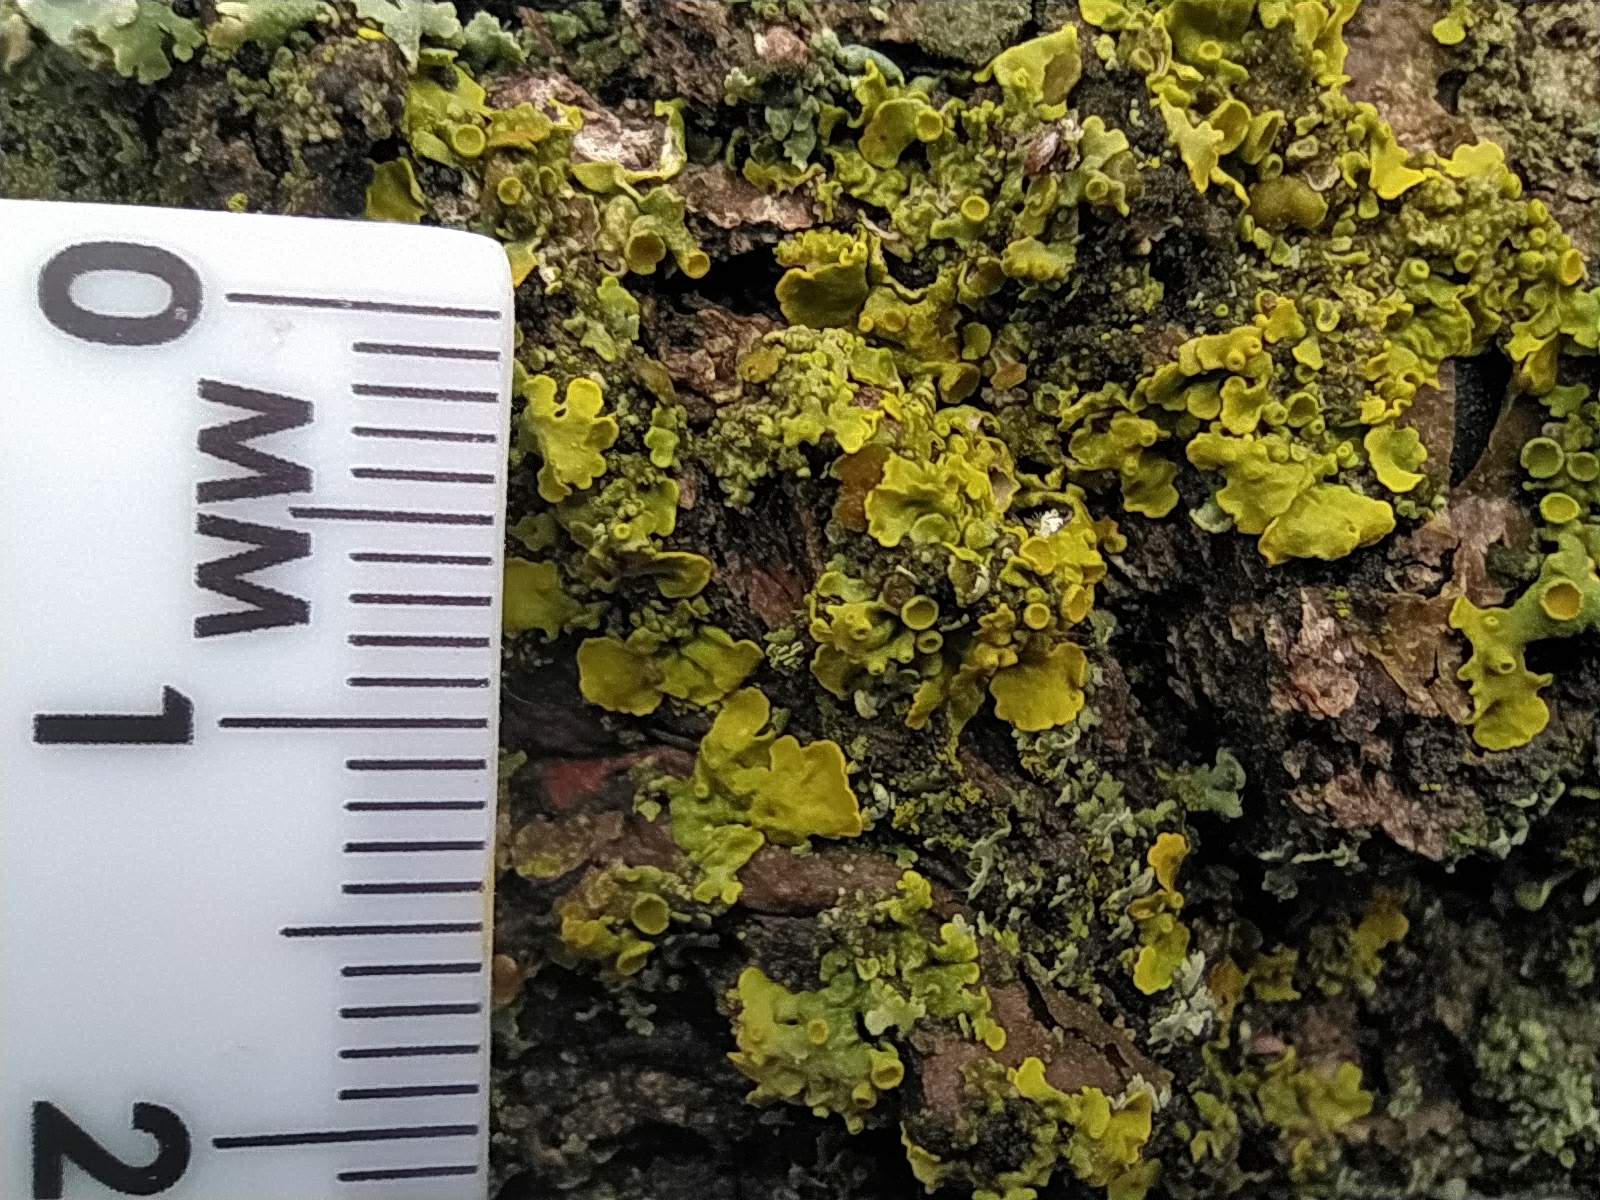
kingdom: Fungi
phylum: Ascomycota
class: Lecanoromycetes
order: Teloschistales
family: Teloschistaceae
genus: Xanthoria
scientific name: Xanthoria parietina
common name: Common orange lichen
